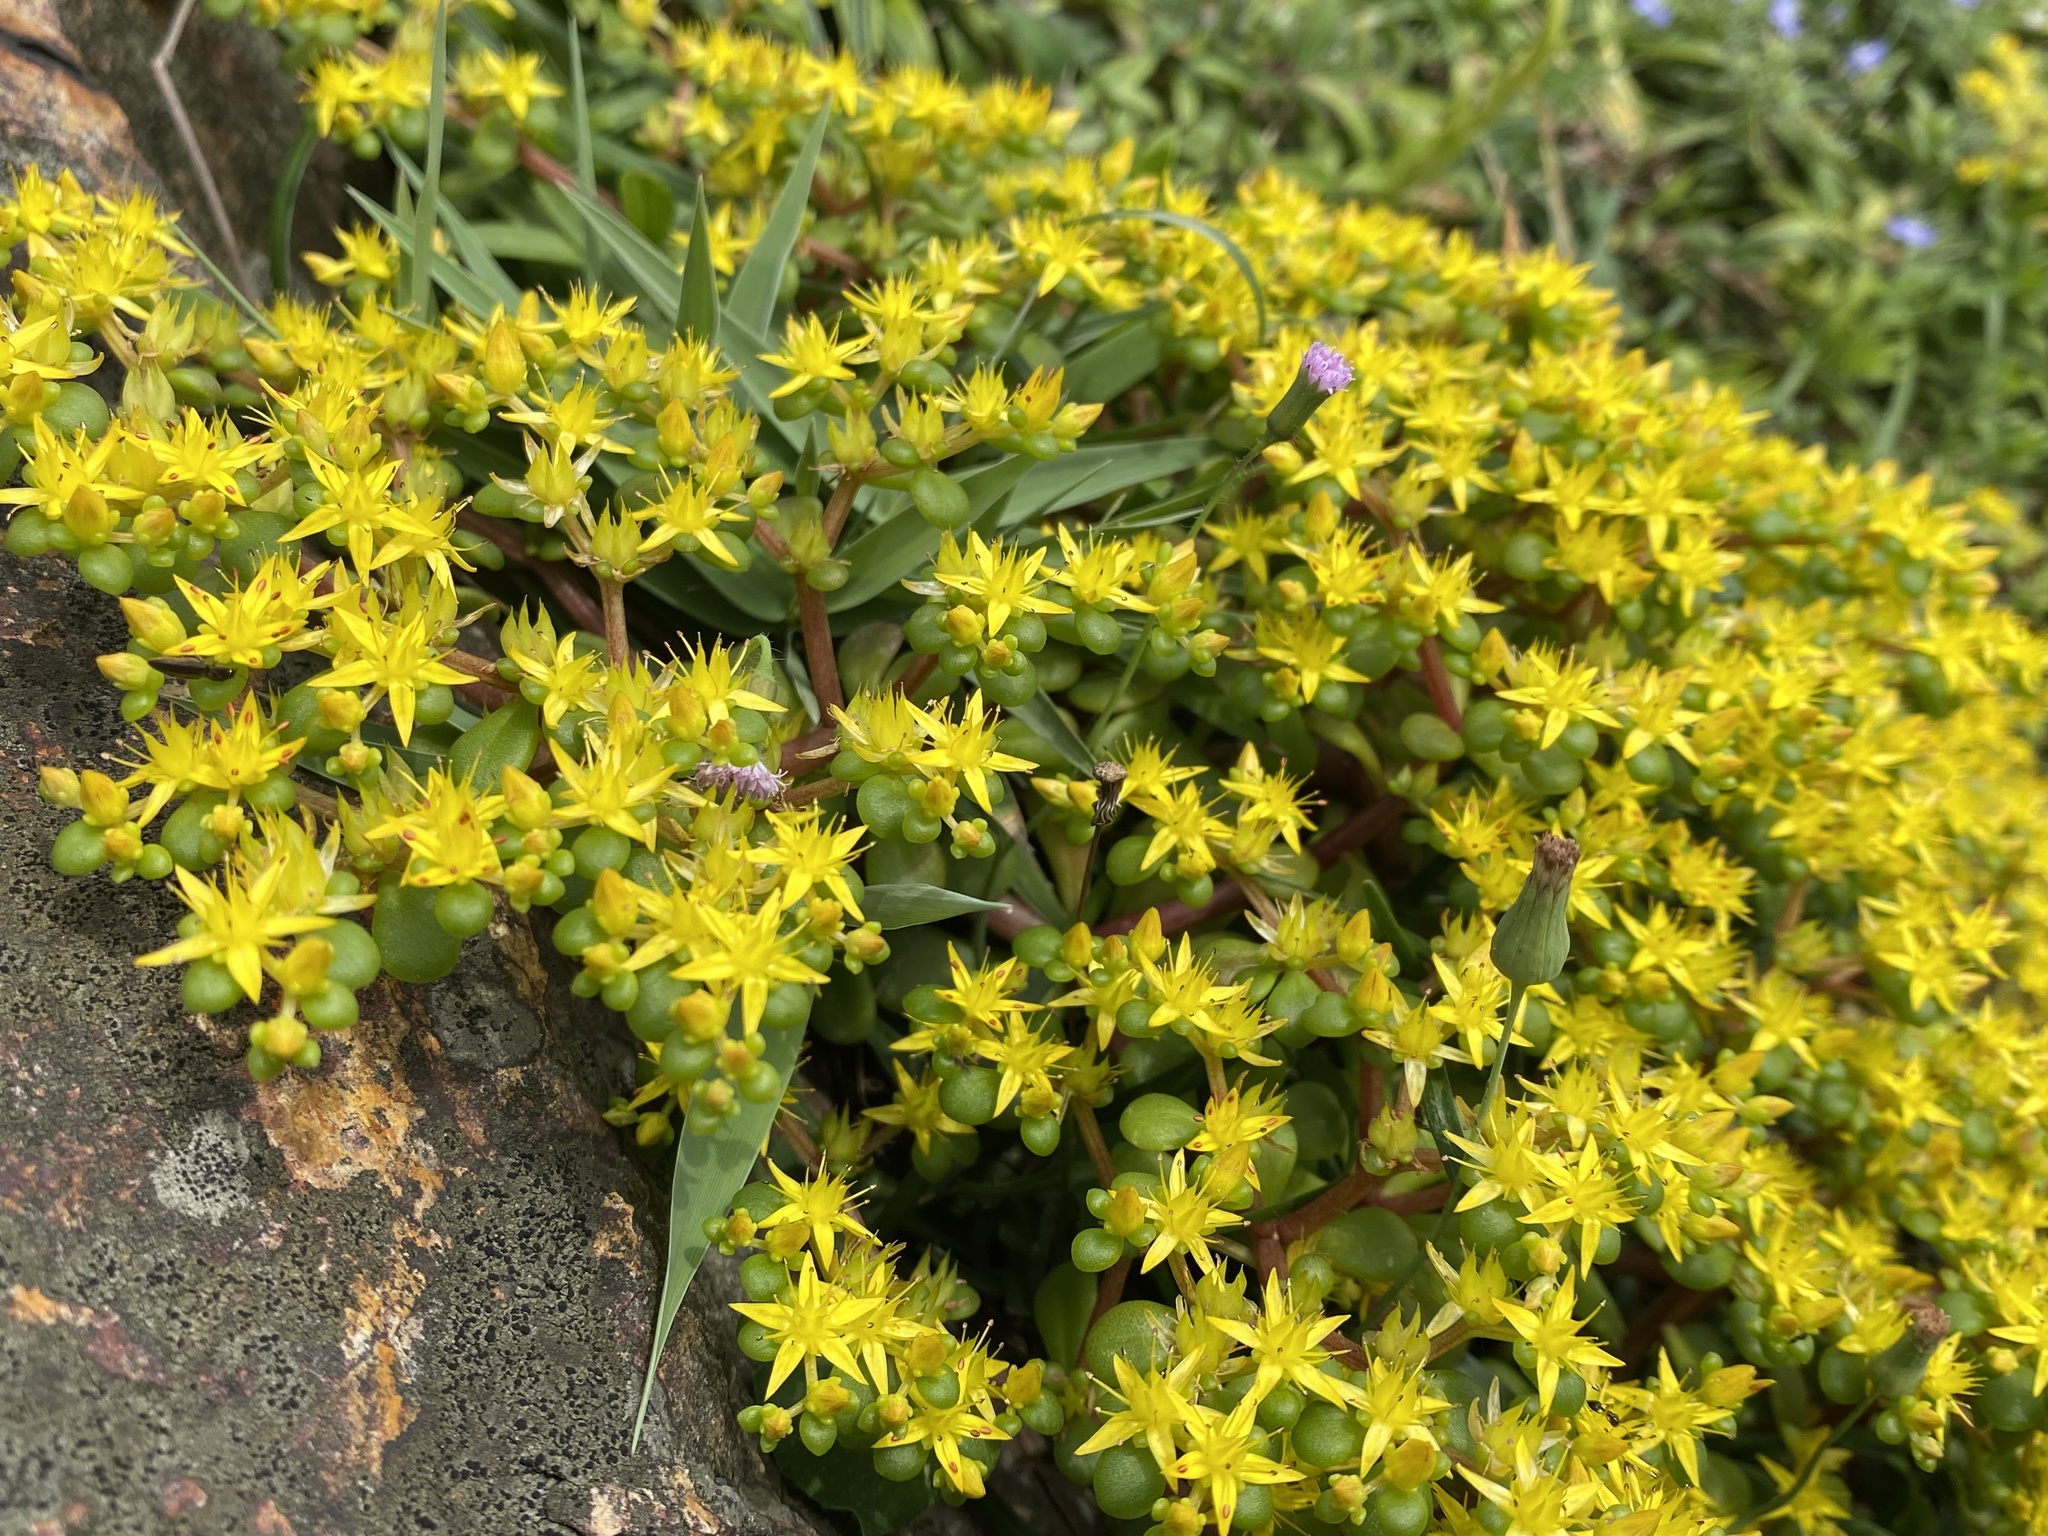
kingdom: Plantae
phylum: Tracheophyta
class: Magnoliopsida
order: Saxifragales
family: Crassulaceae
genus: Sedum
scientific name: Sedum formosanum
